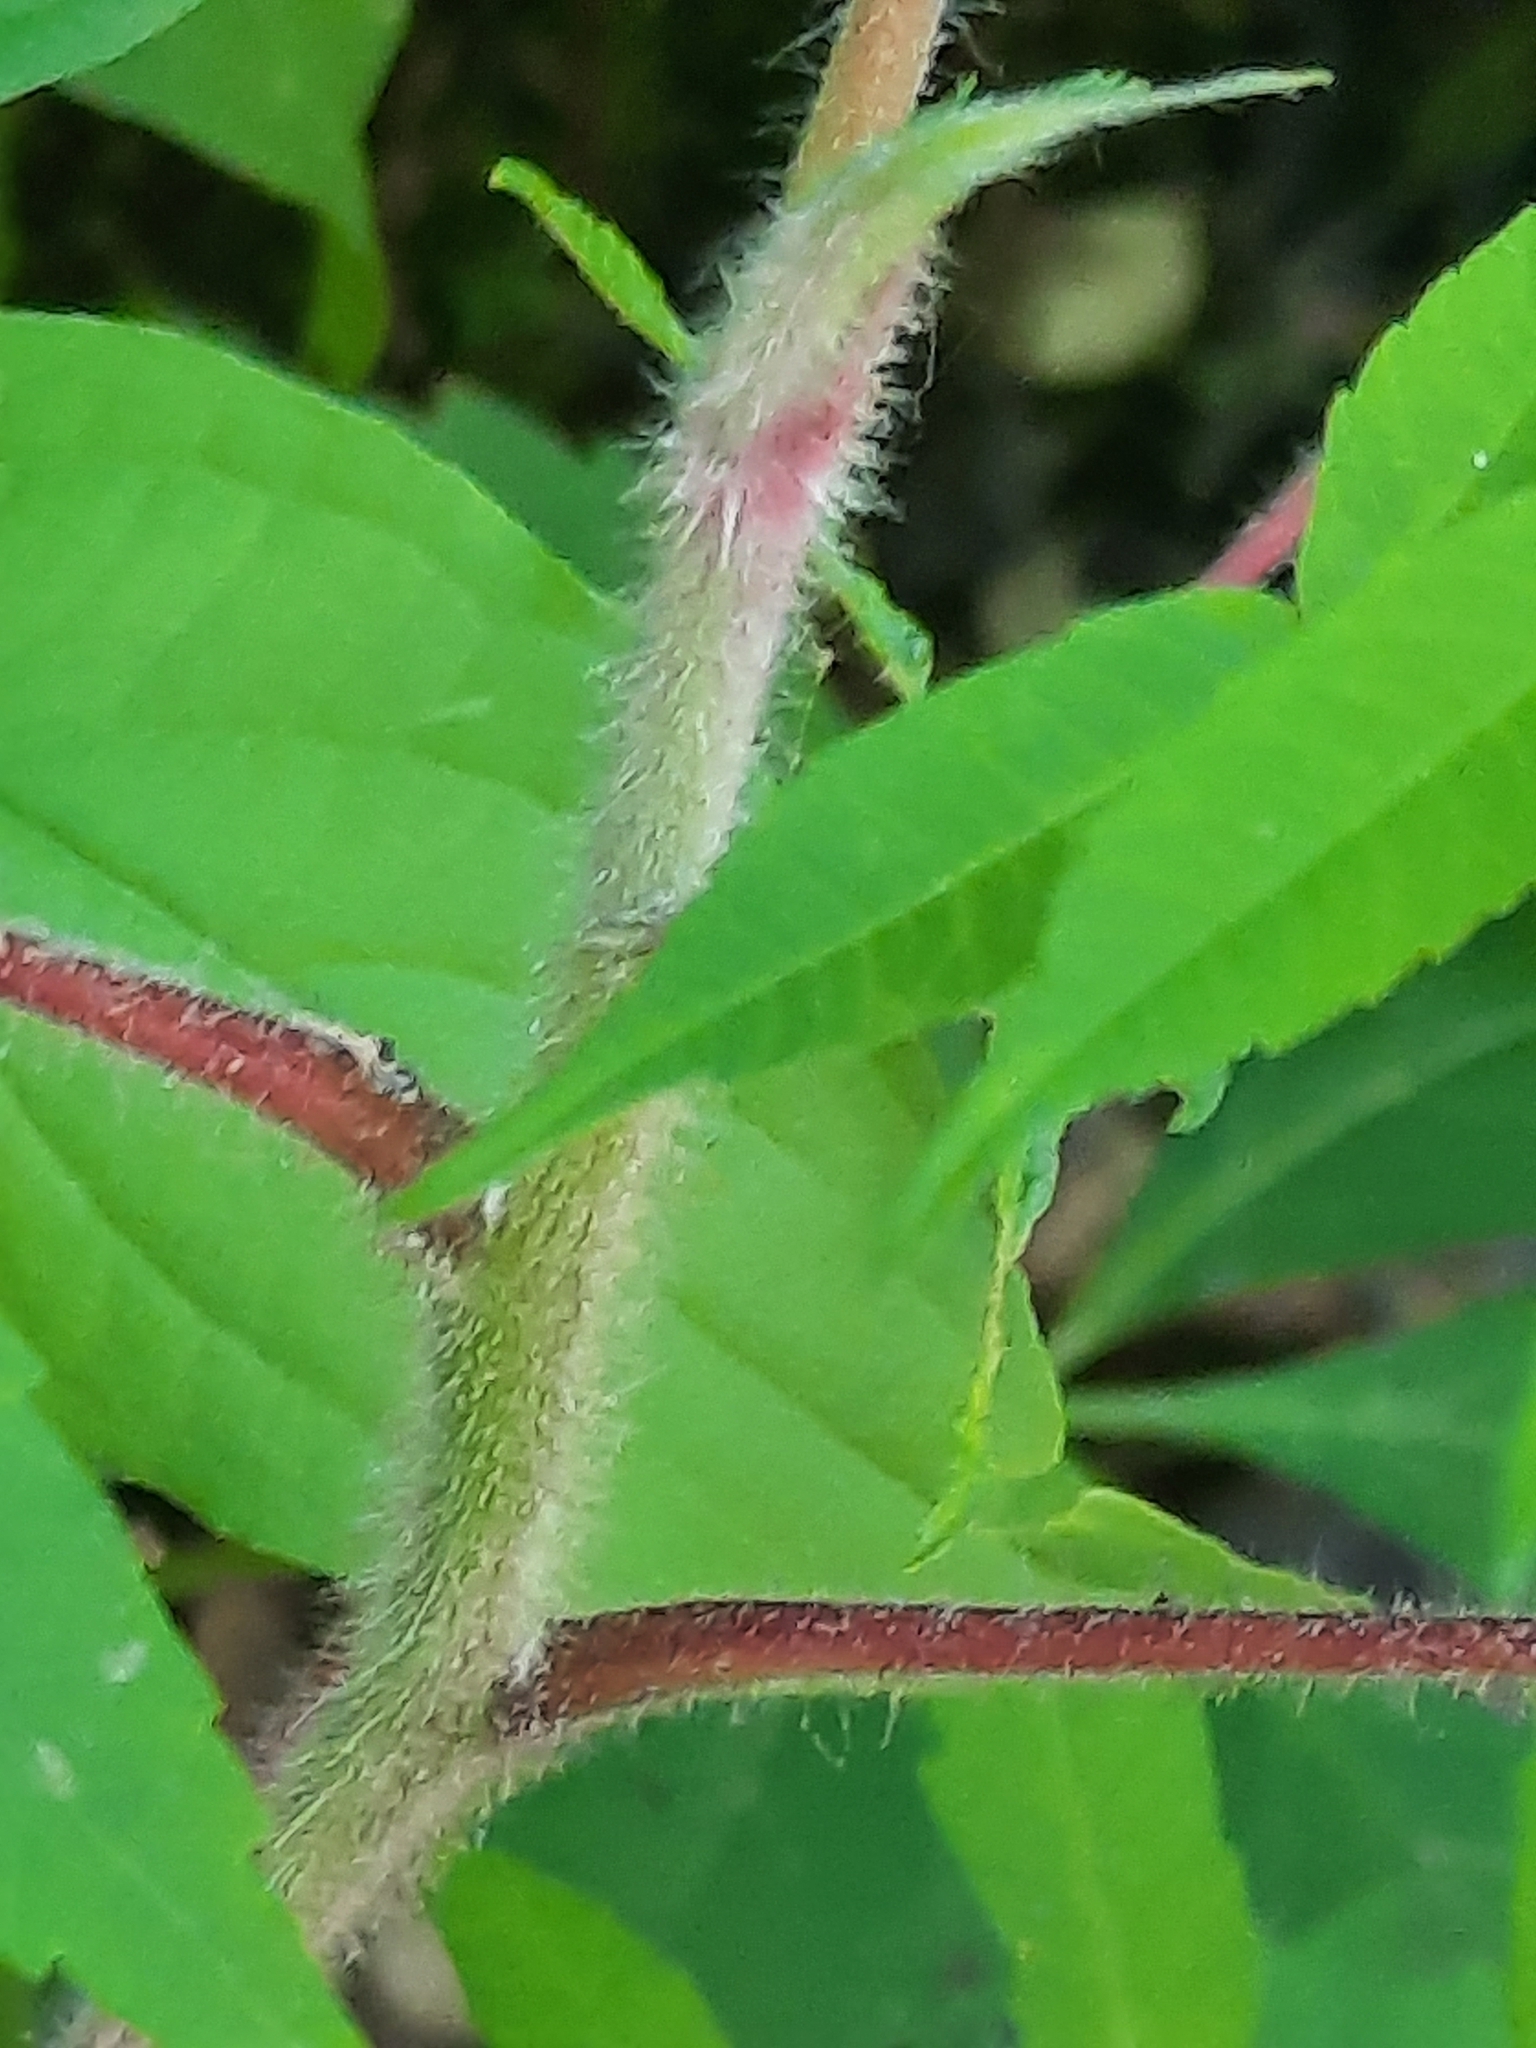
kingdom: Plantae
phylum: Tracheophyta
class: Magnoliopsida
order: Sapindales
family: Anacardiaceae
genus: Rhus
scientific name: Rhus typhina
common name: Staghorn sumac
